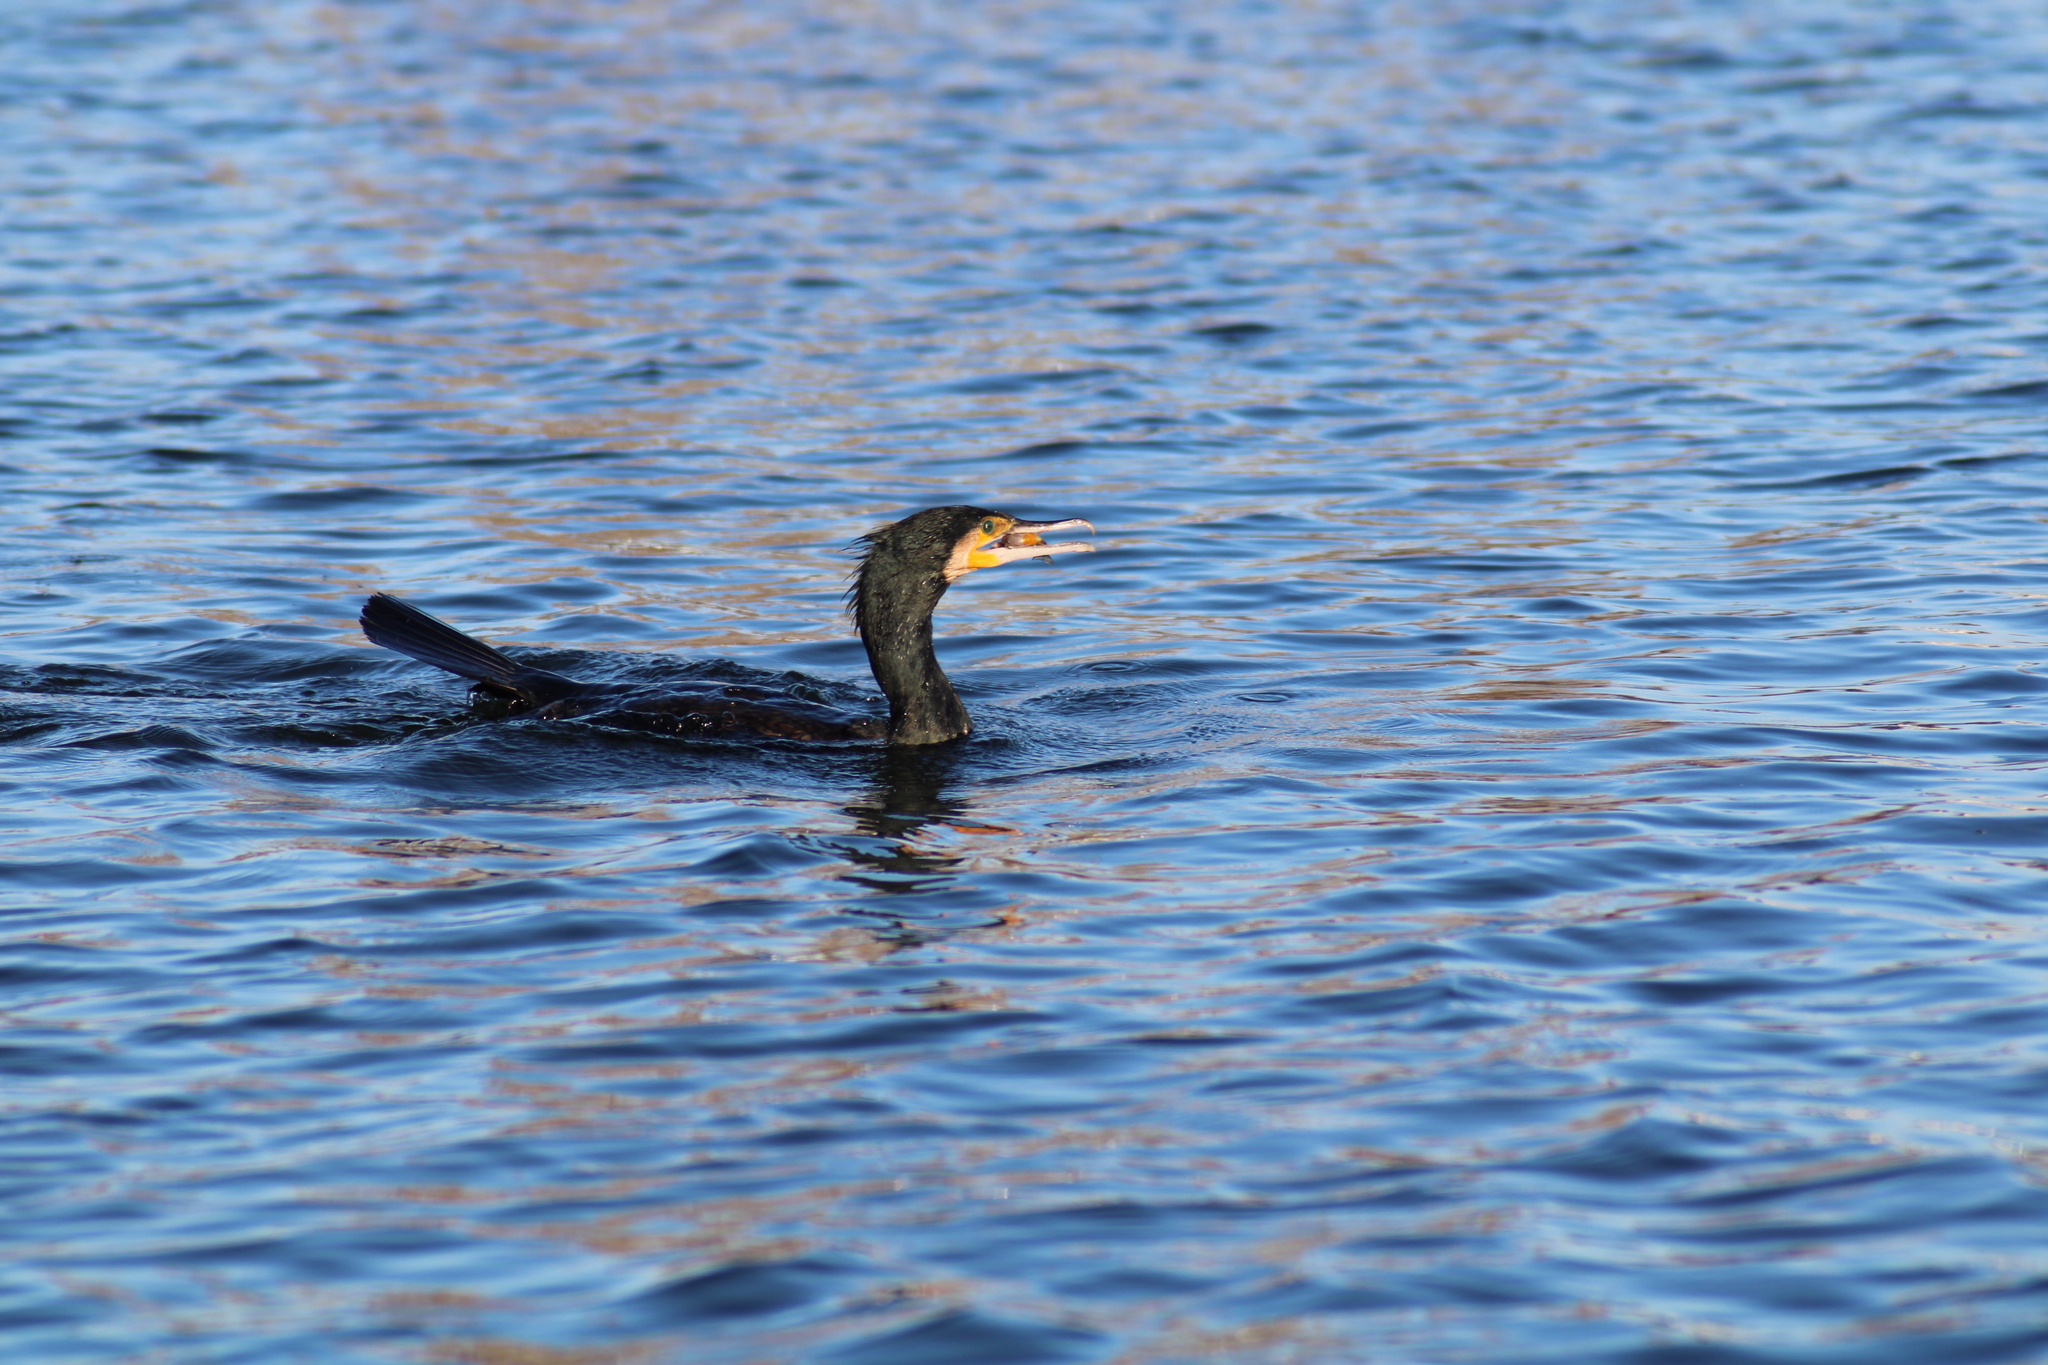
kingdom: Animalia
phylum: Chordata
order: Perciformes
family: Centrarchidae
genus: Lepomis
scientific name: Lepomis gibbosus
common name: Pumpkinseed
